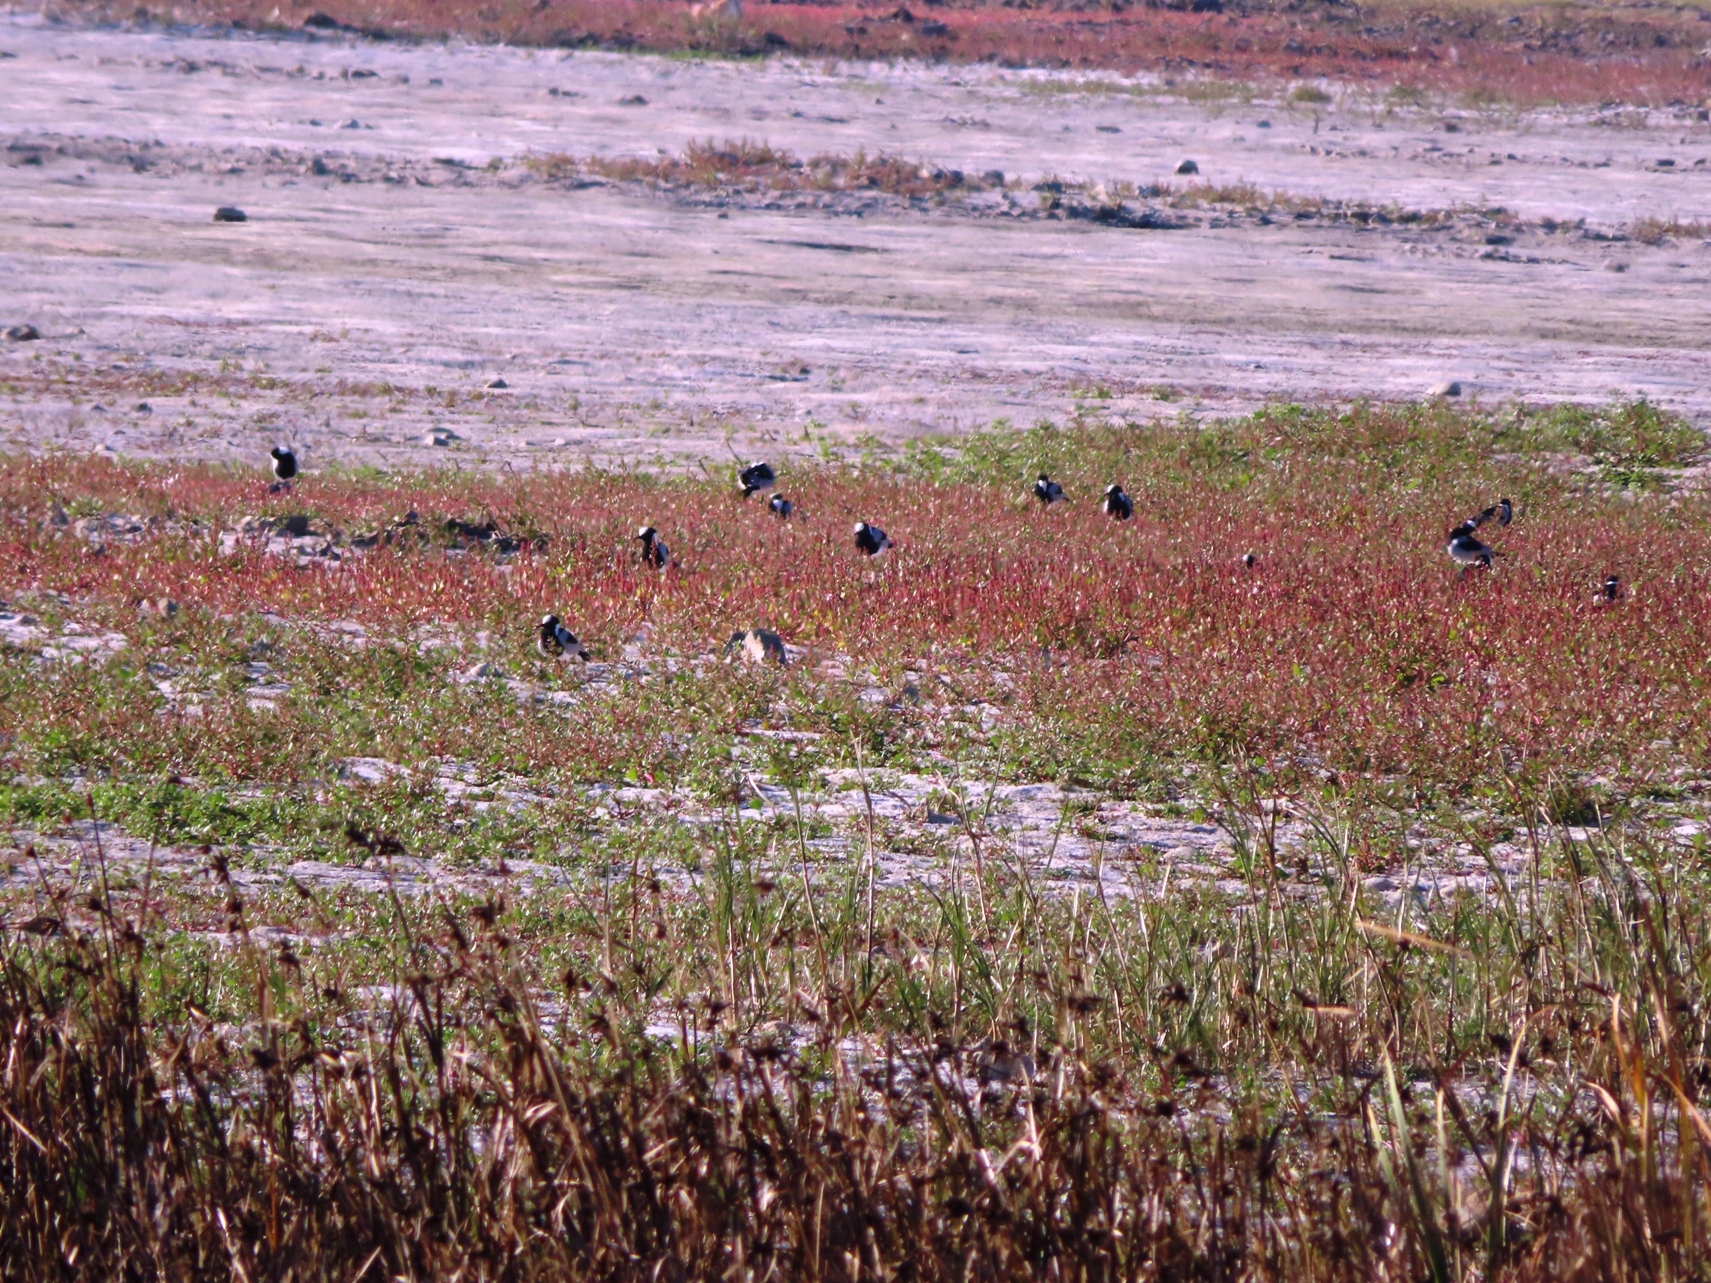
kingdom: Animalia
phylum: Chordata
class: Aves
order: Charadriiformes
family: Charadriidae
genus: Vanellus
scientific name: Vanellus armatus
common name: Blacksmith lapwing
